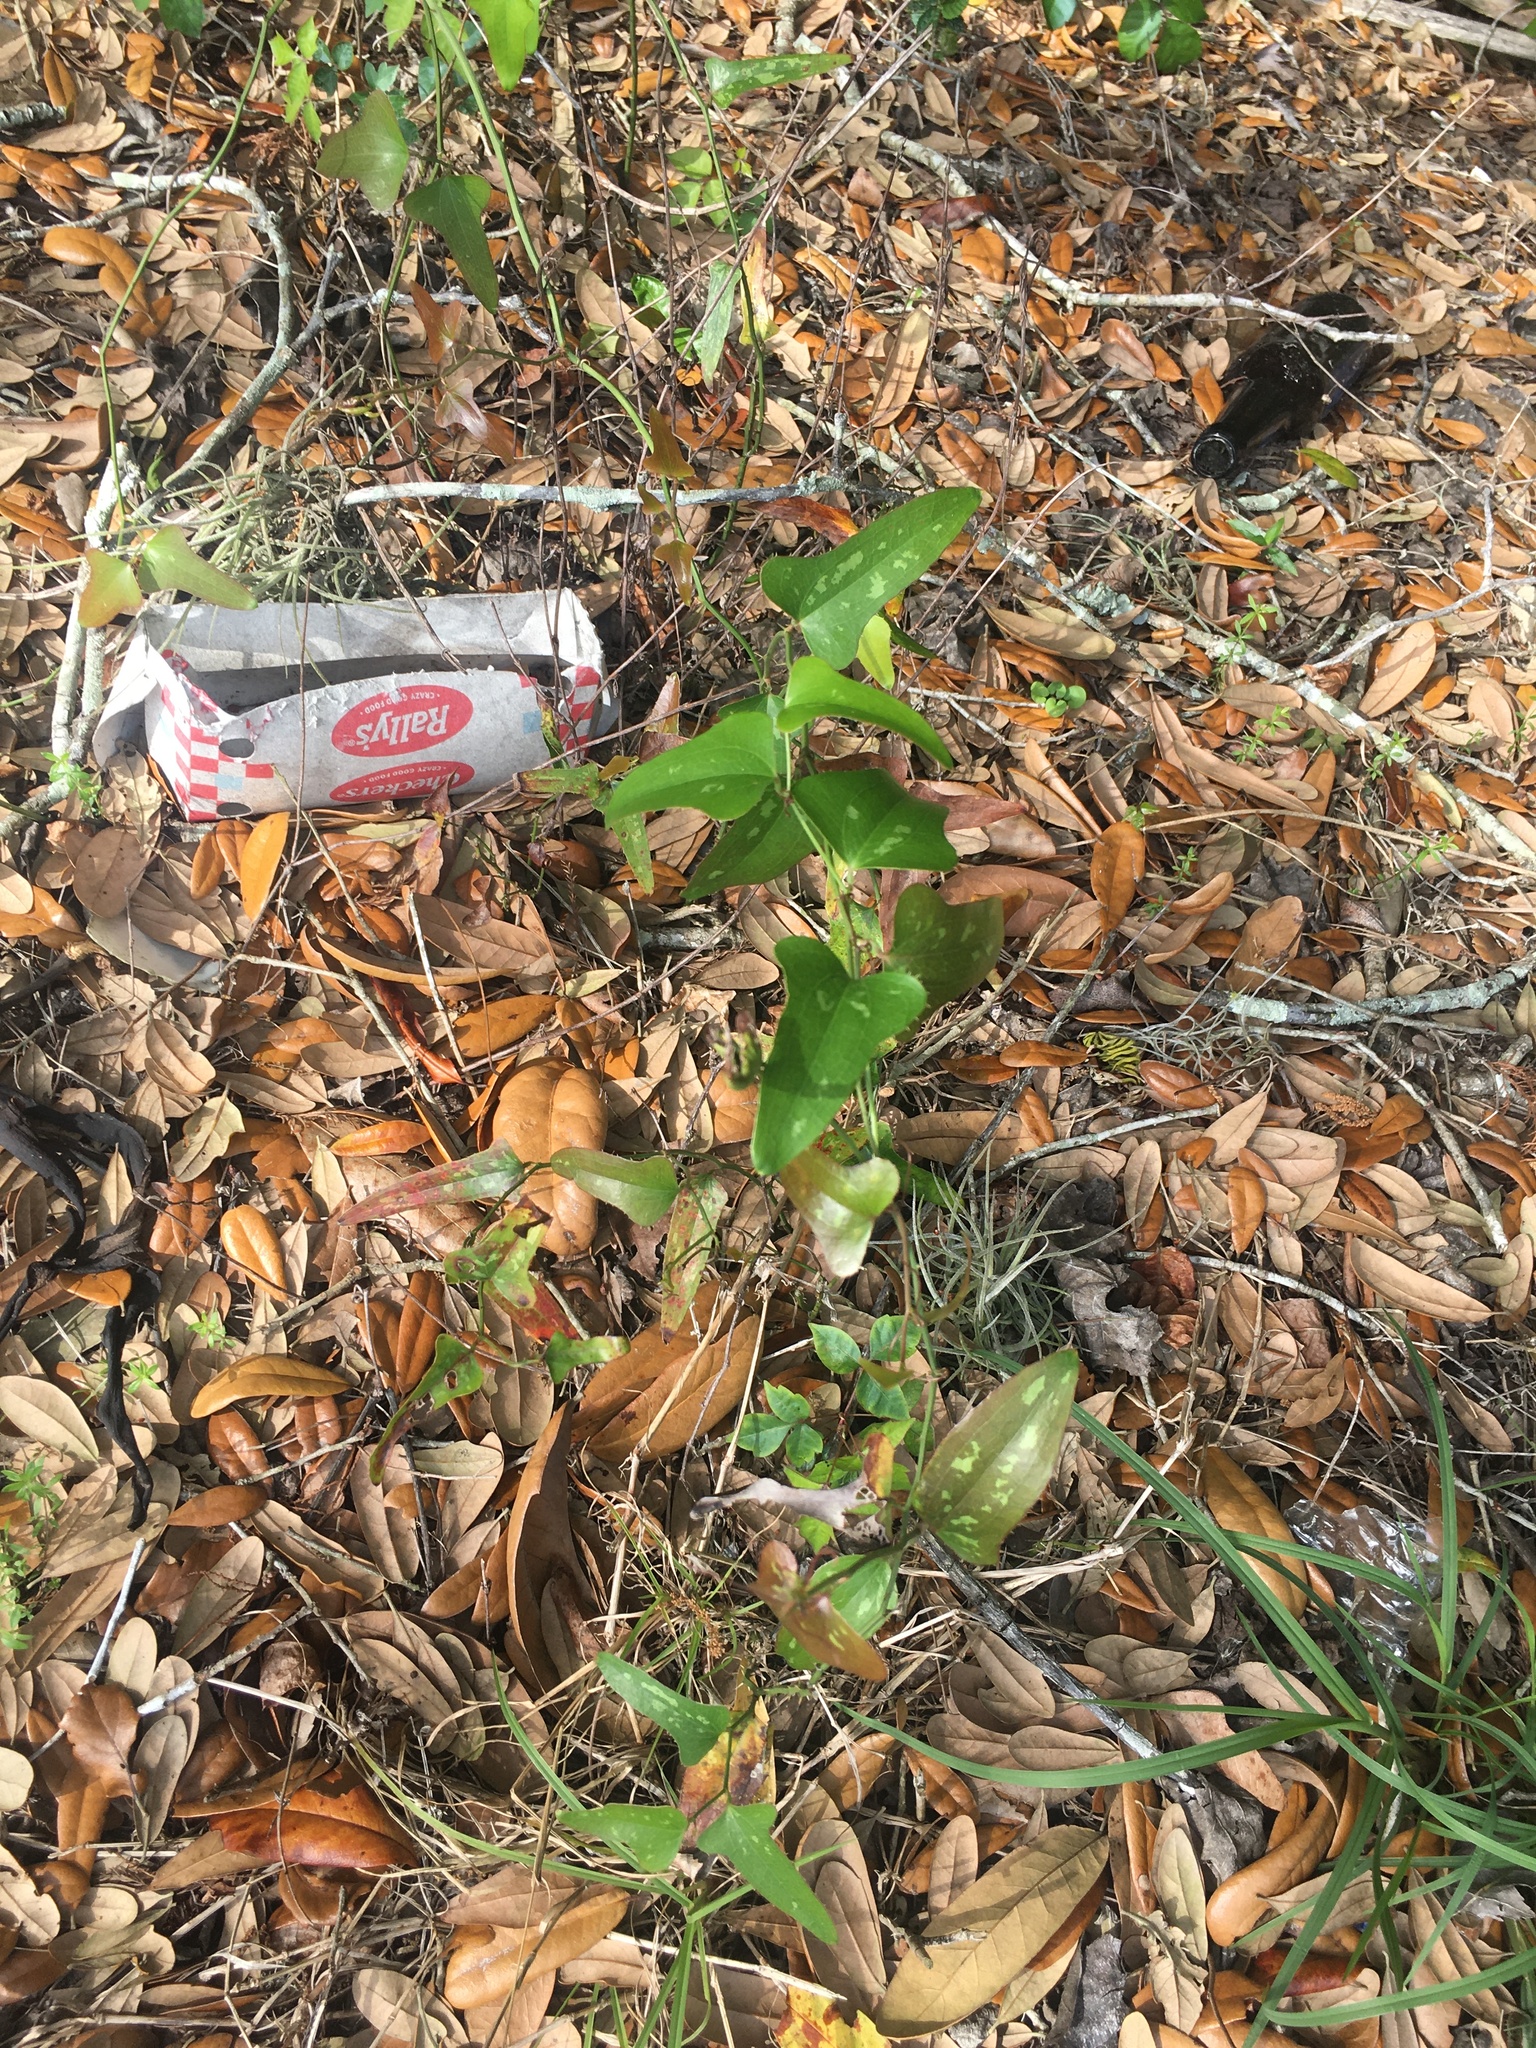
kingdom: Plantae
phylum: Tracheophyta
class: Liliopsida
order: Liliales
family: Smilacaceae
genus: Smilax
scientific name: Smilax bona-nox
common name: Catbrier
